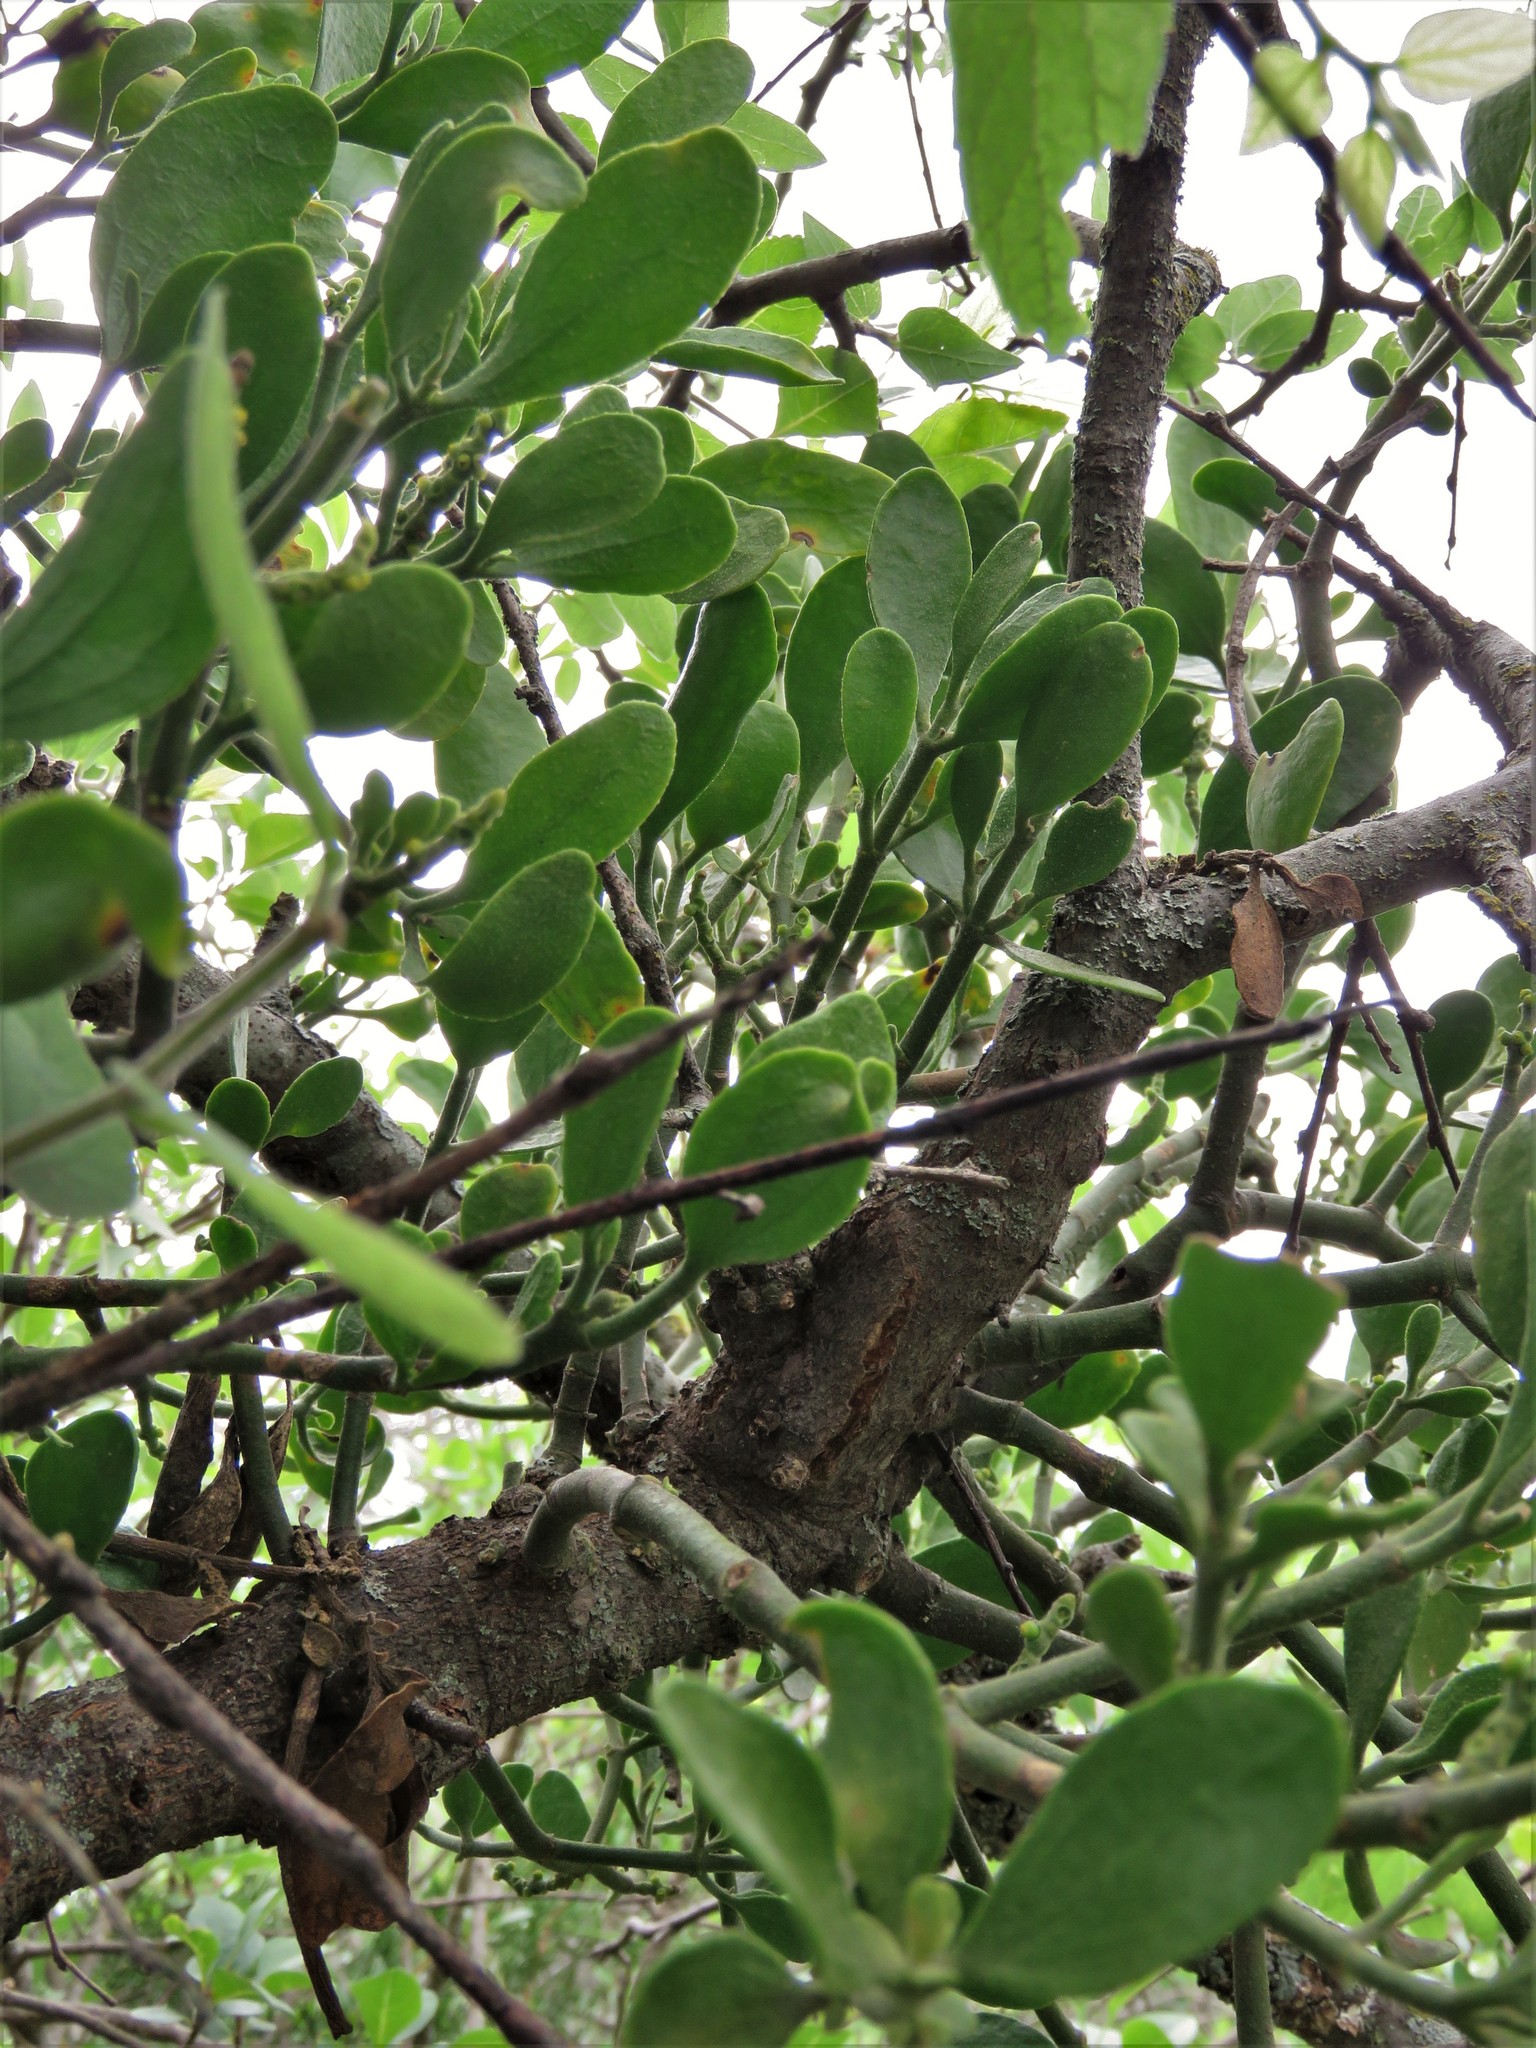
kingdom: Plantae
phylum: Tracheophyta
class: Magnoliopsida
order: Santalales
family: Viscaceae
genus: Phoradendron
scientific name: Phoradendron leucarpum
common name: Pacific mistletoe
